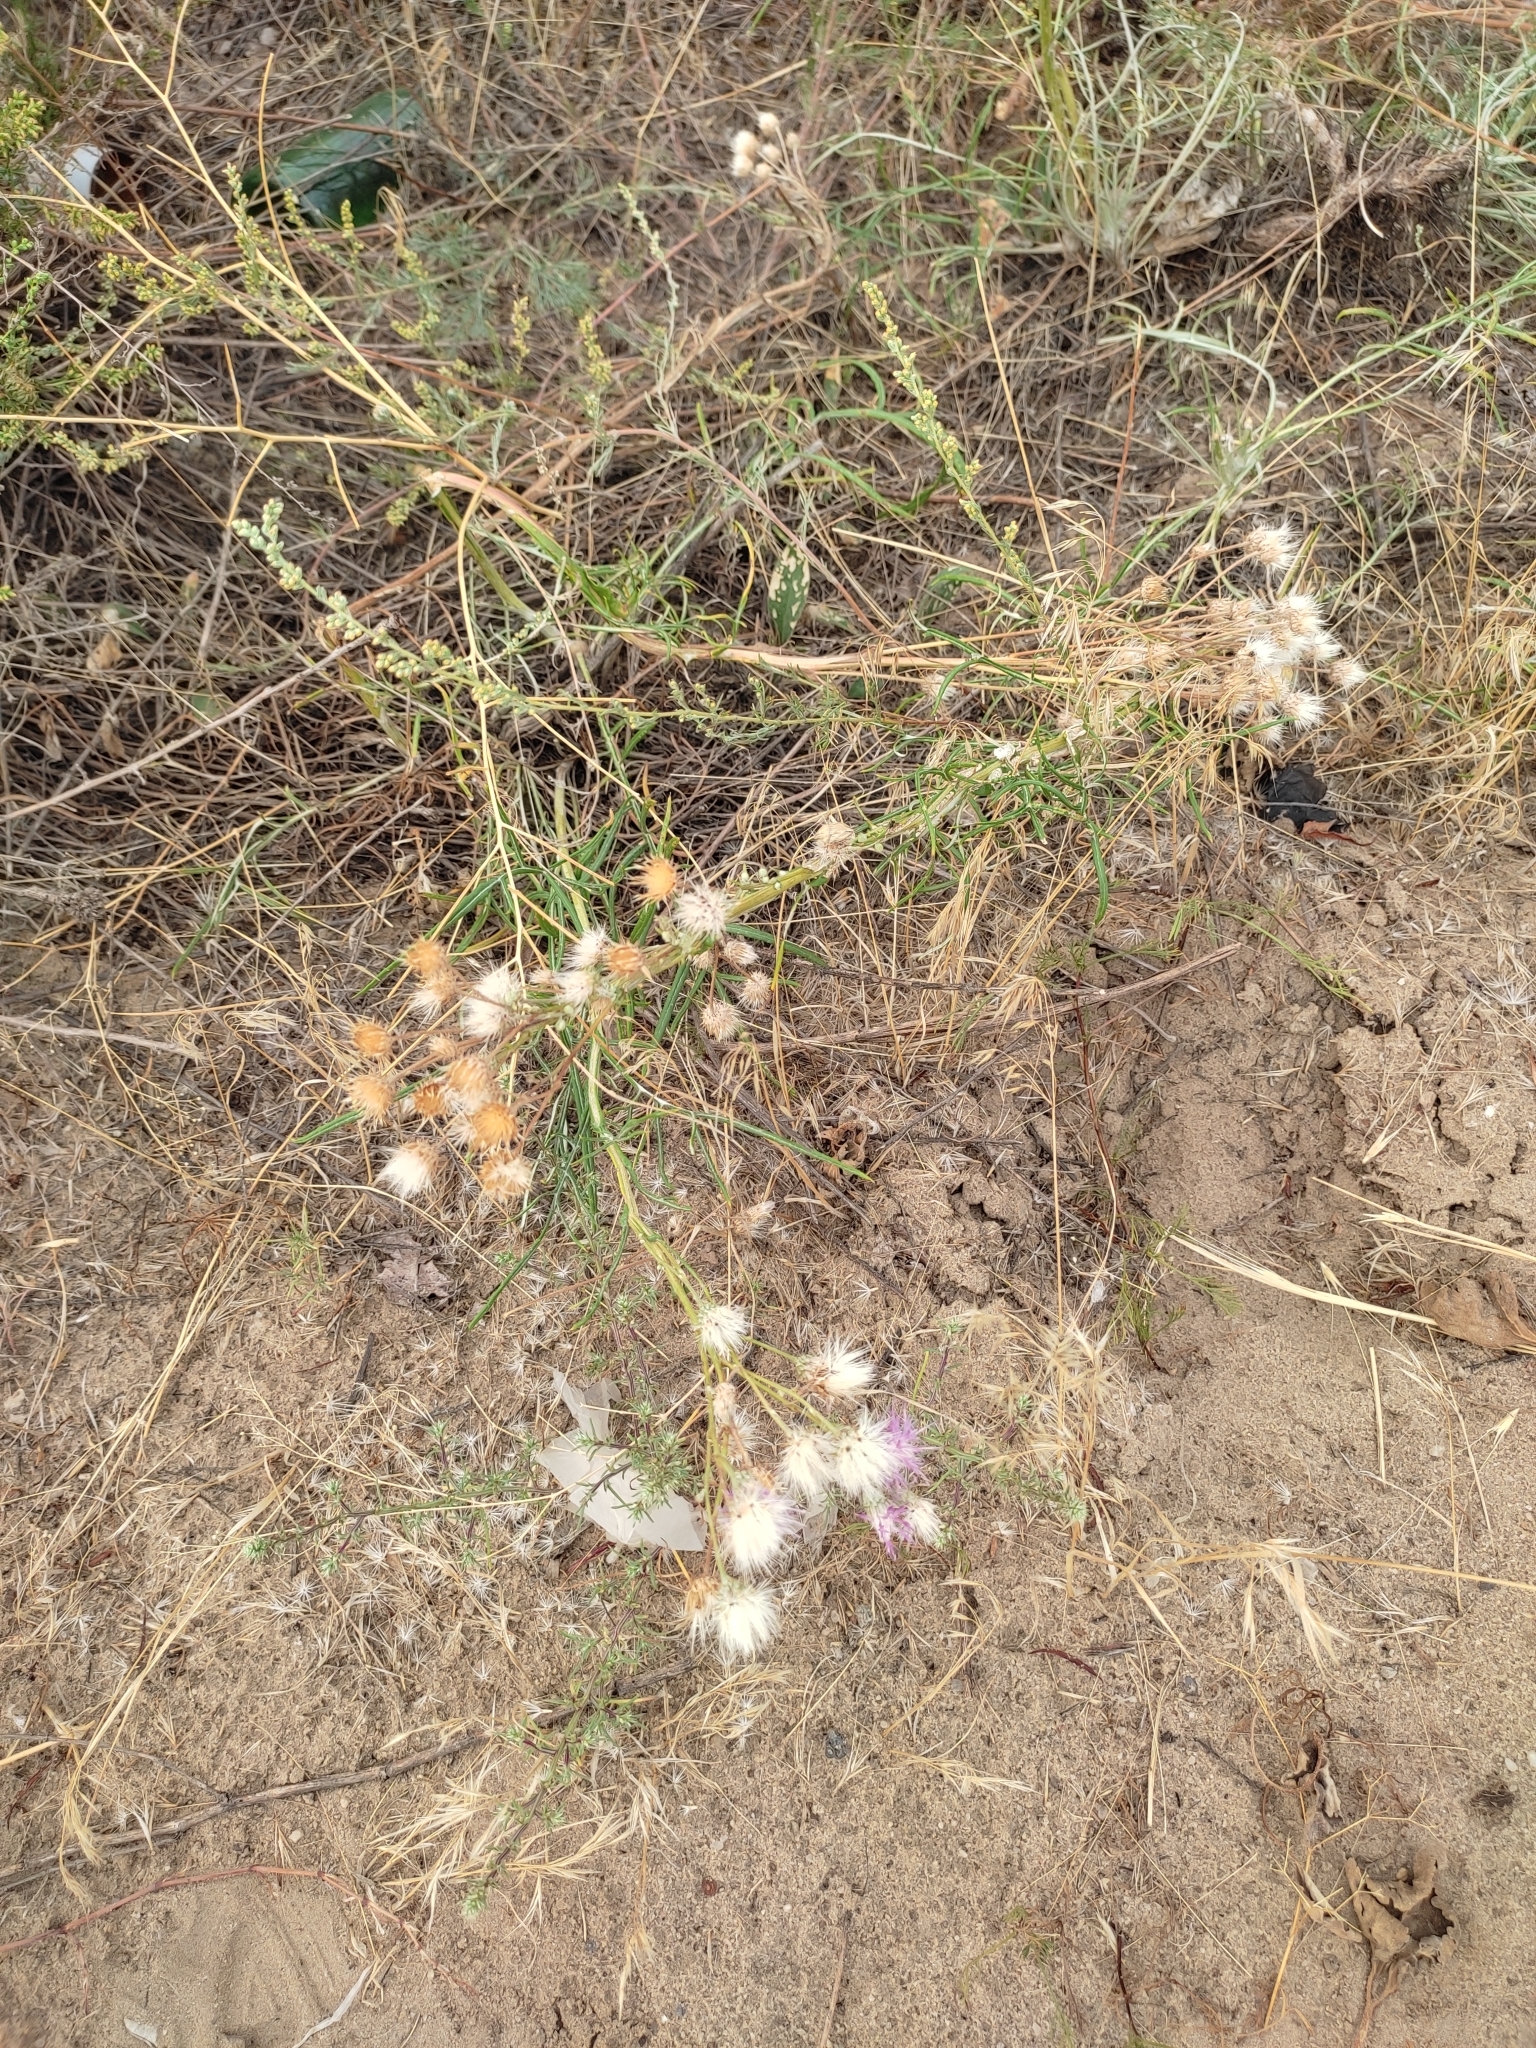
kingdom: Plantae
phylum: Tracheophyta
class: Magnoliopsida
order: Asterales
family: Asteraceae
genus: Jurinea
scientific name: Jurinea polyclonos
